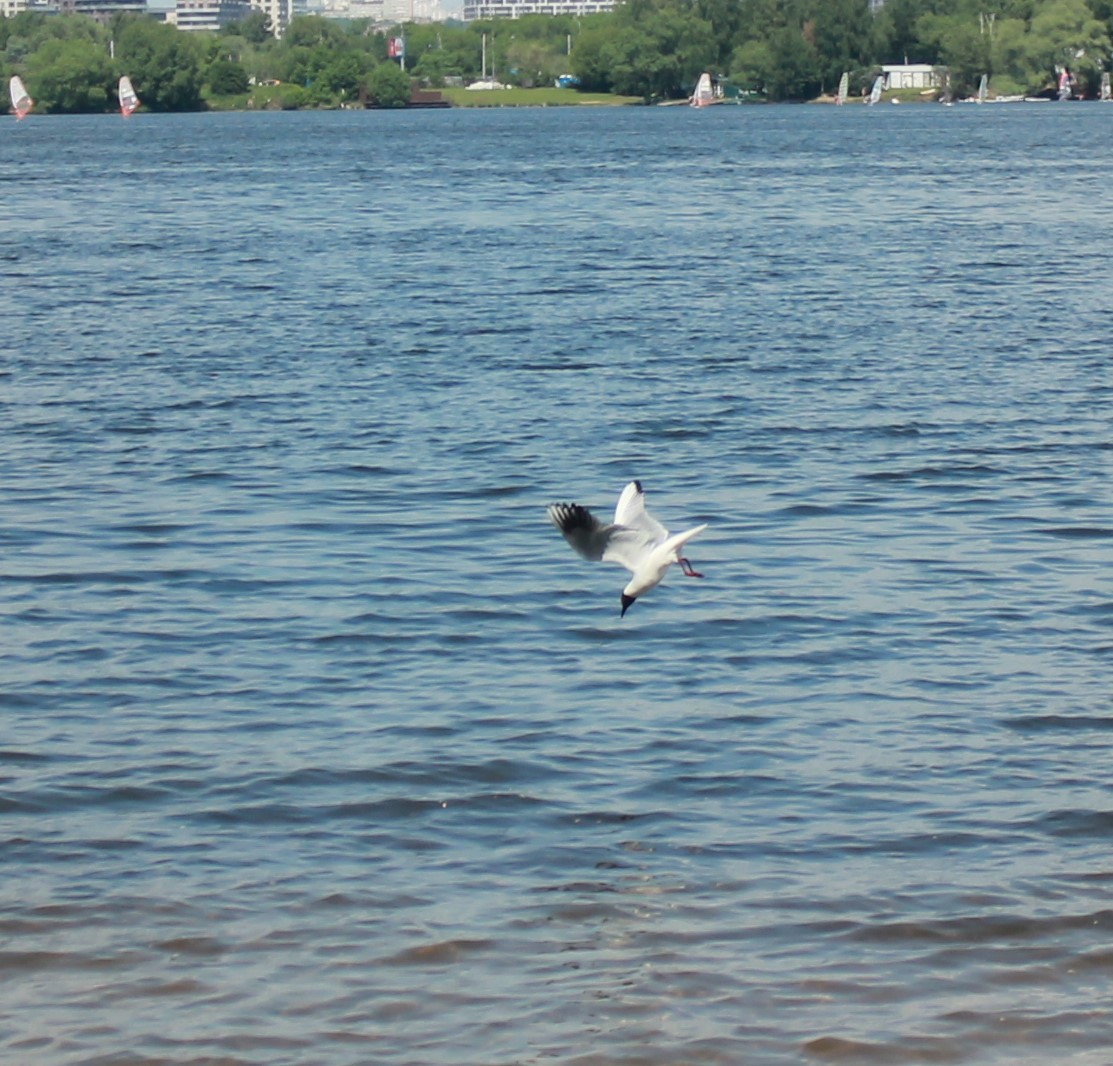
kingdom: Animalia
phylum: Chordata
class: Aves
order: Charadriiformes
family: Laridae
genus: Chroicocephalus
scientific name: Chroicocephalus ridibundus
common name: Black-headed gull
